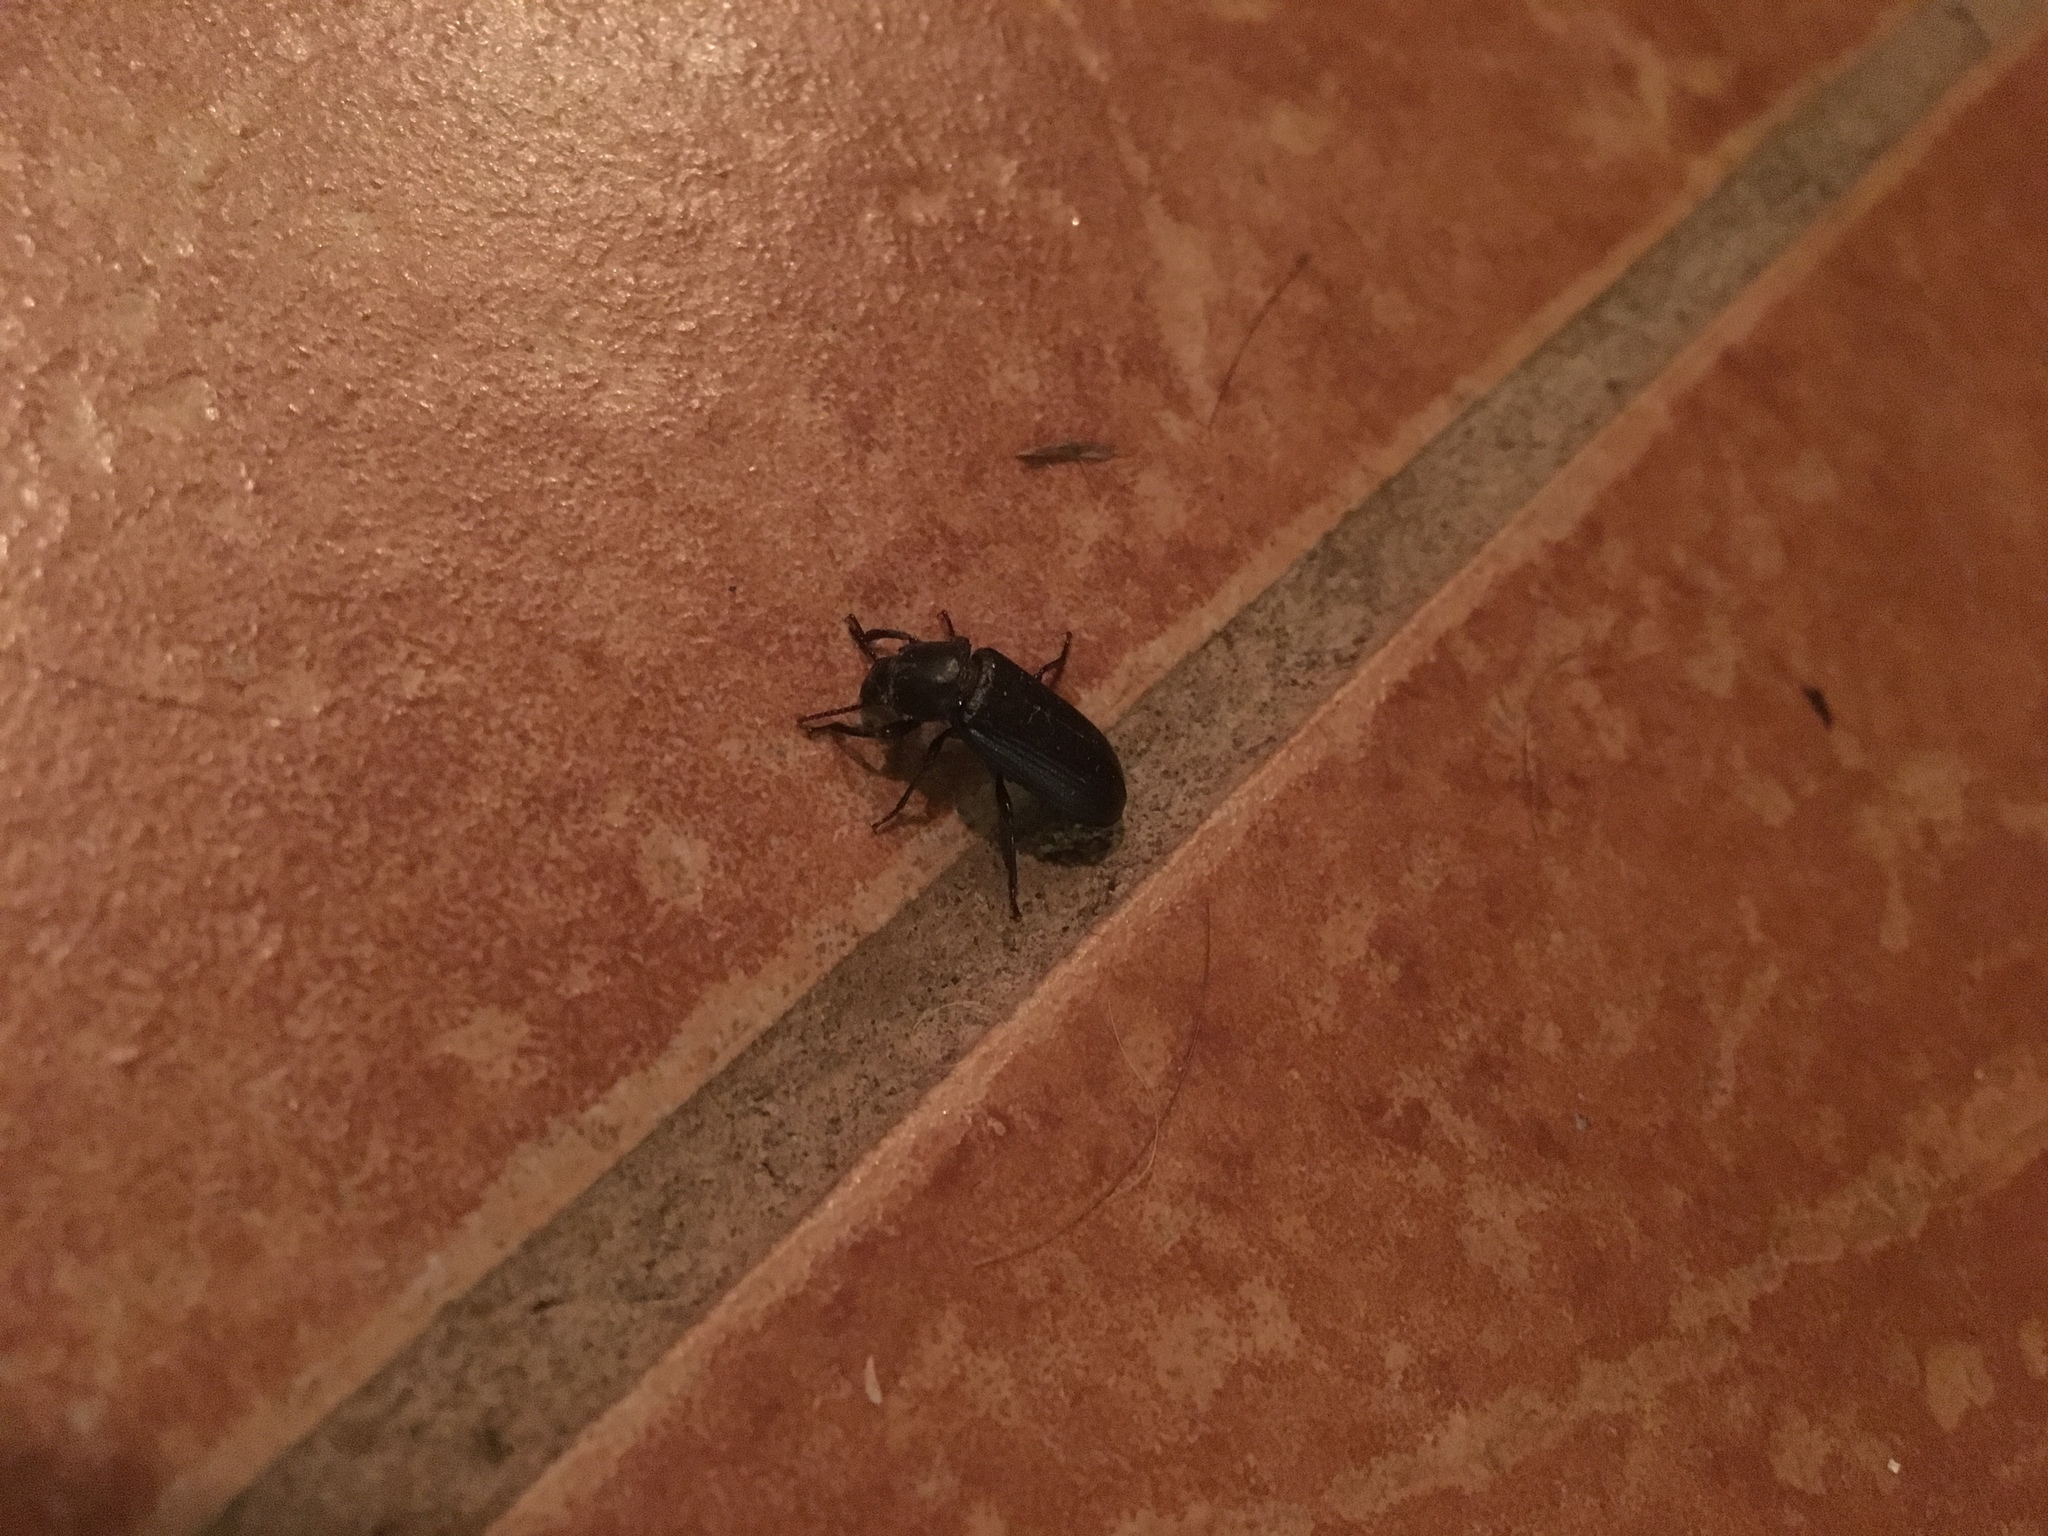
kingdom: Animalia
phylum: Arthropoda
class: Insecta
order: Coleoptera
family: Tenebrionidae
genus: Tenebrio
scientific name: Tenebrio molitor
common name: Hardback beetle
